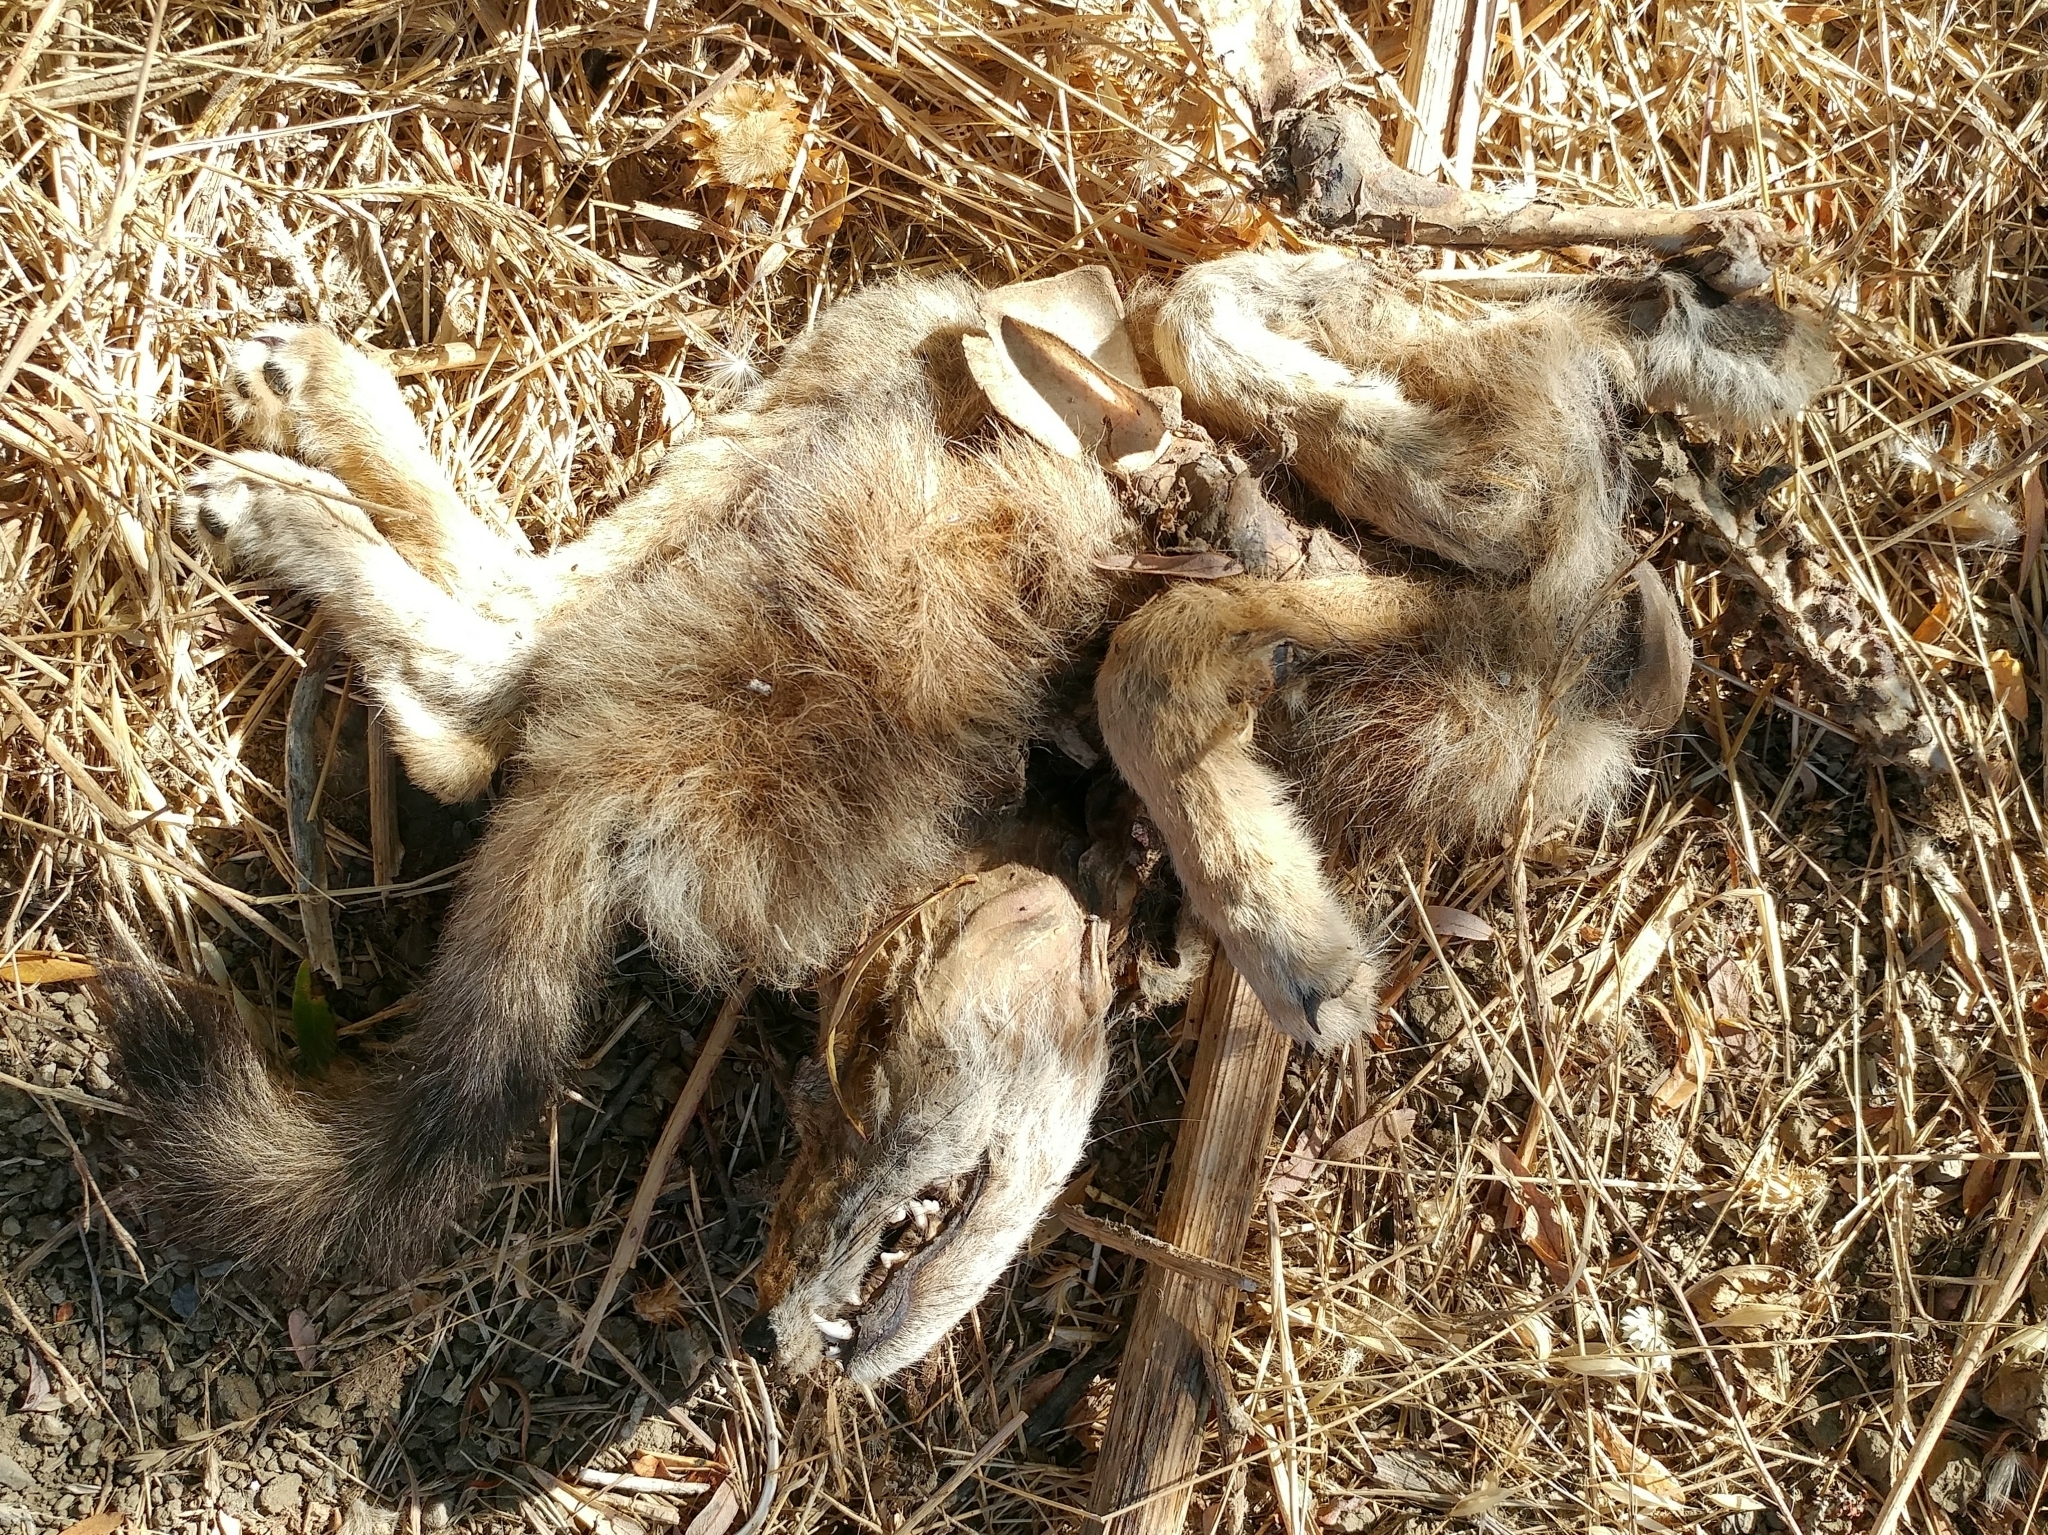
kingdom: Animalia
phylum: Chordata
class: Mammalia
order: Carnivora
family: Canidae
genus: Canis
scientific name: Canis latrans
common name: Coyote
